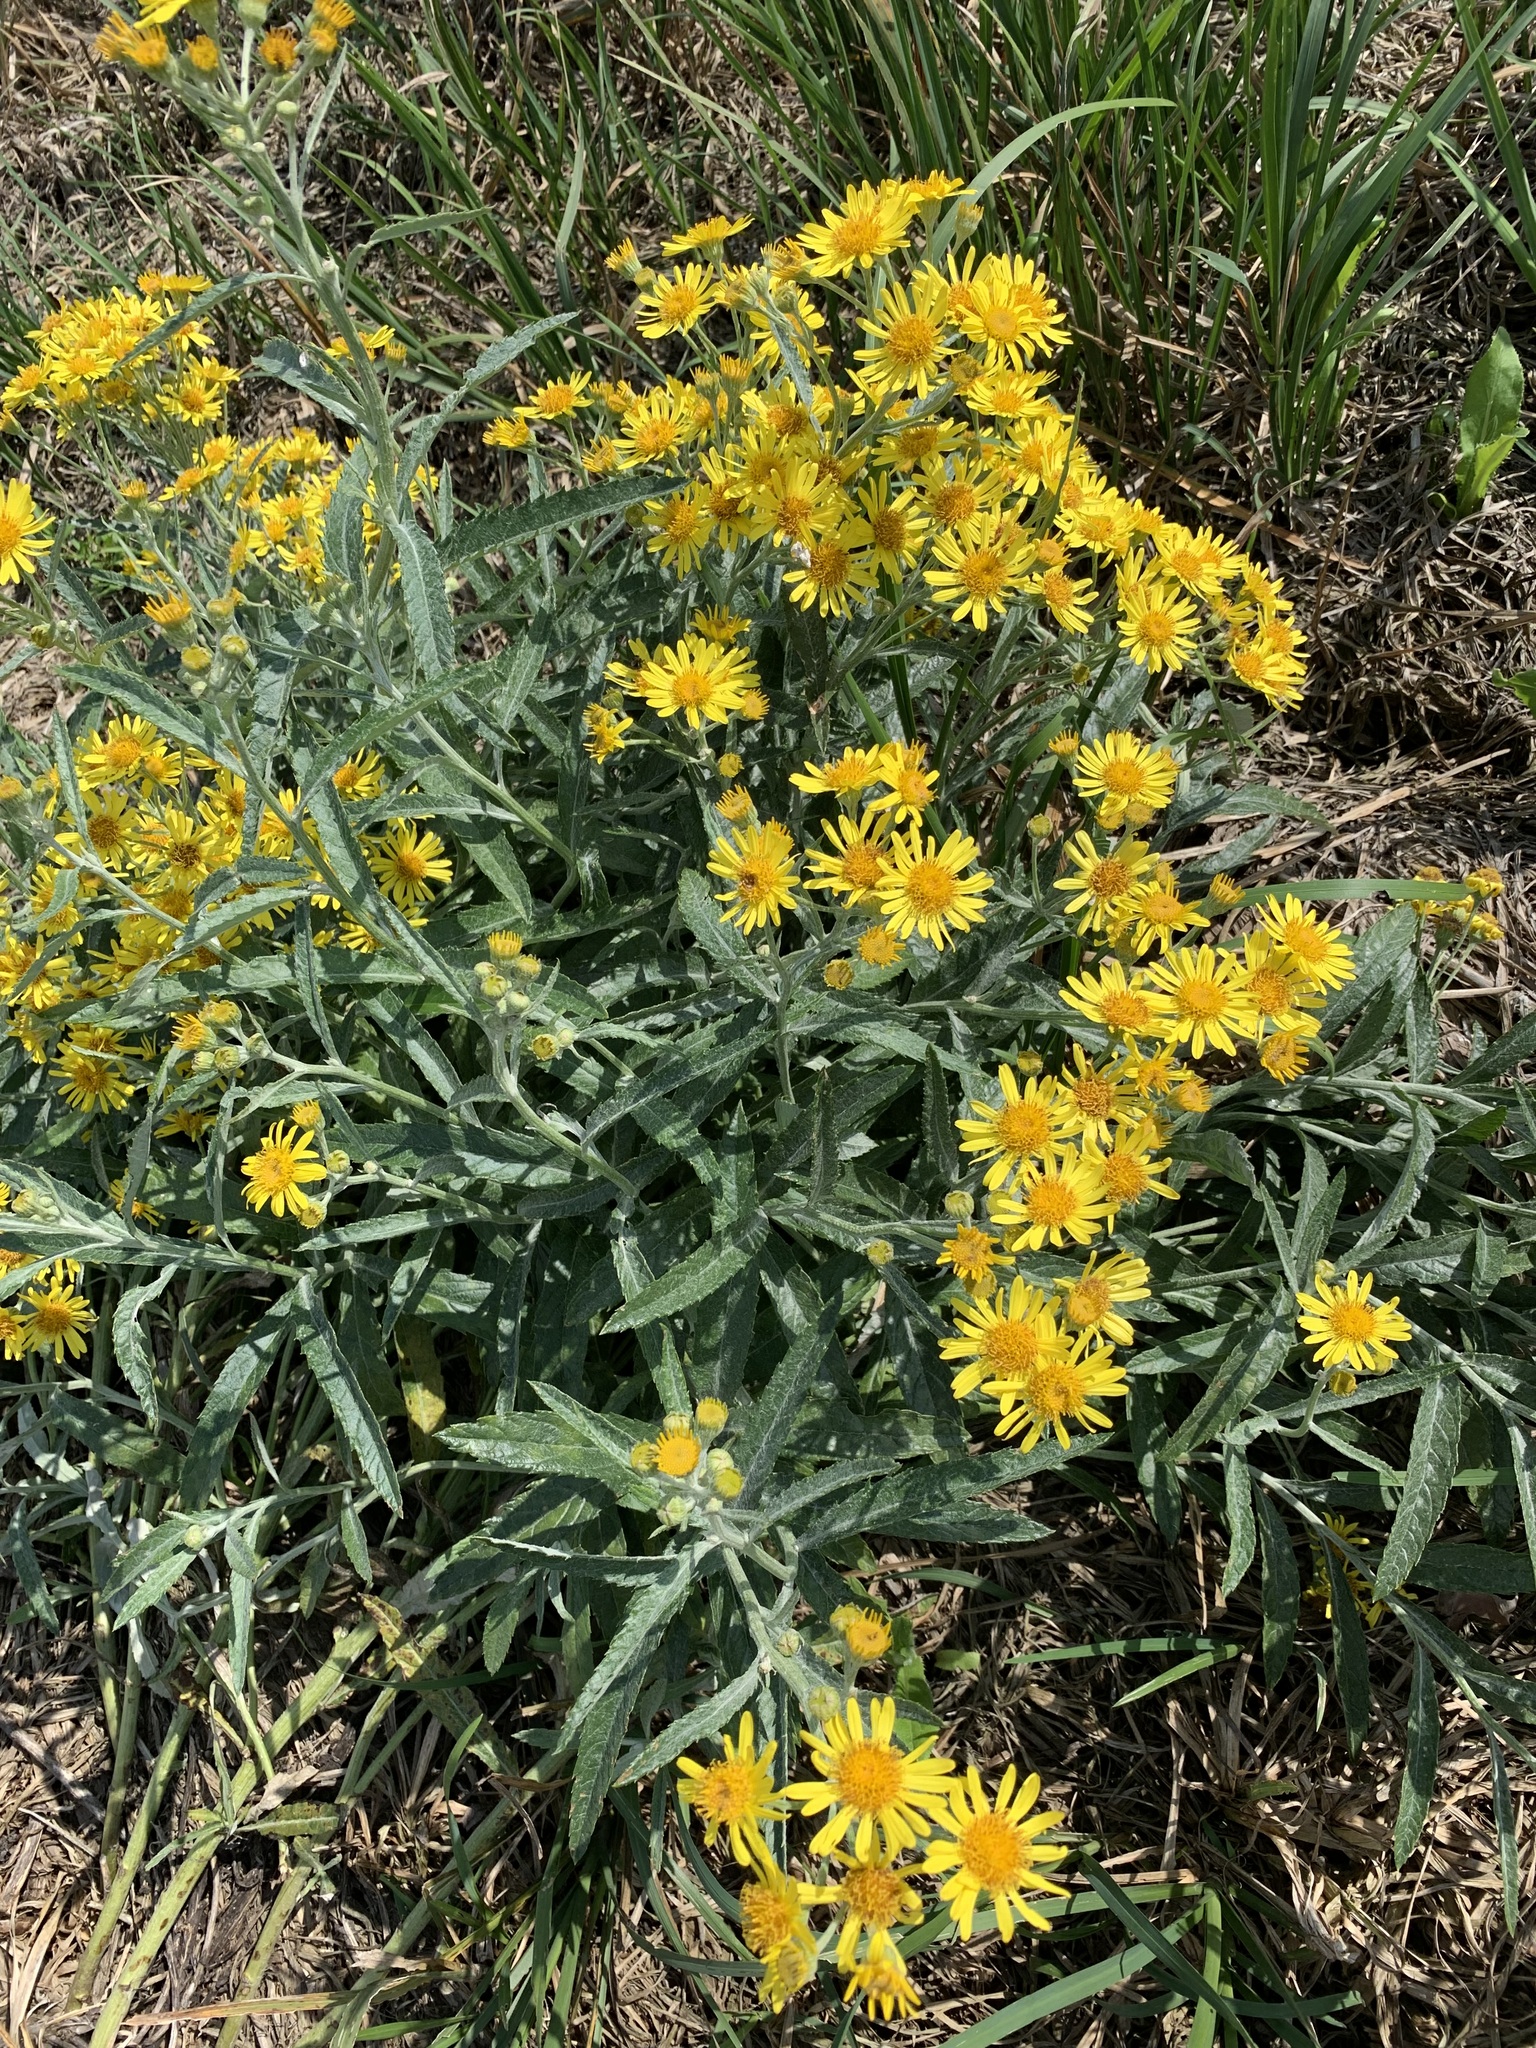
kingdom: Plantae
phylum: Tracheophyta
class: Magnoliopsida
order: Asterales
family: Asteraceae
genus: Jacobaea
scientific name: Jacobaea paludosa
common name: Fen ragwort
